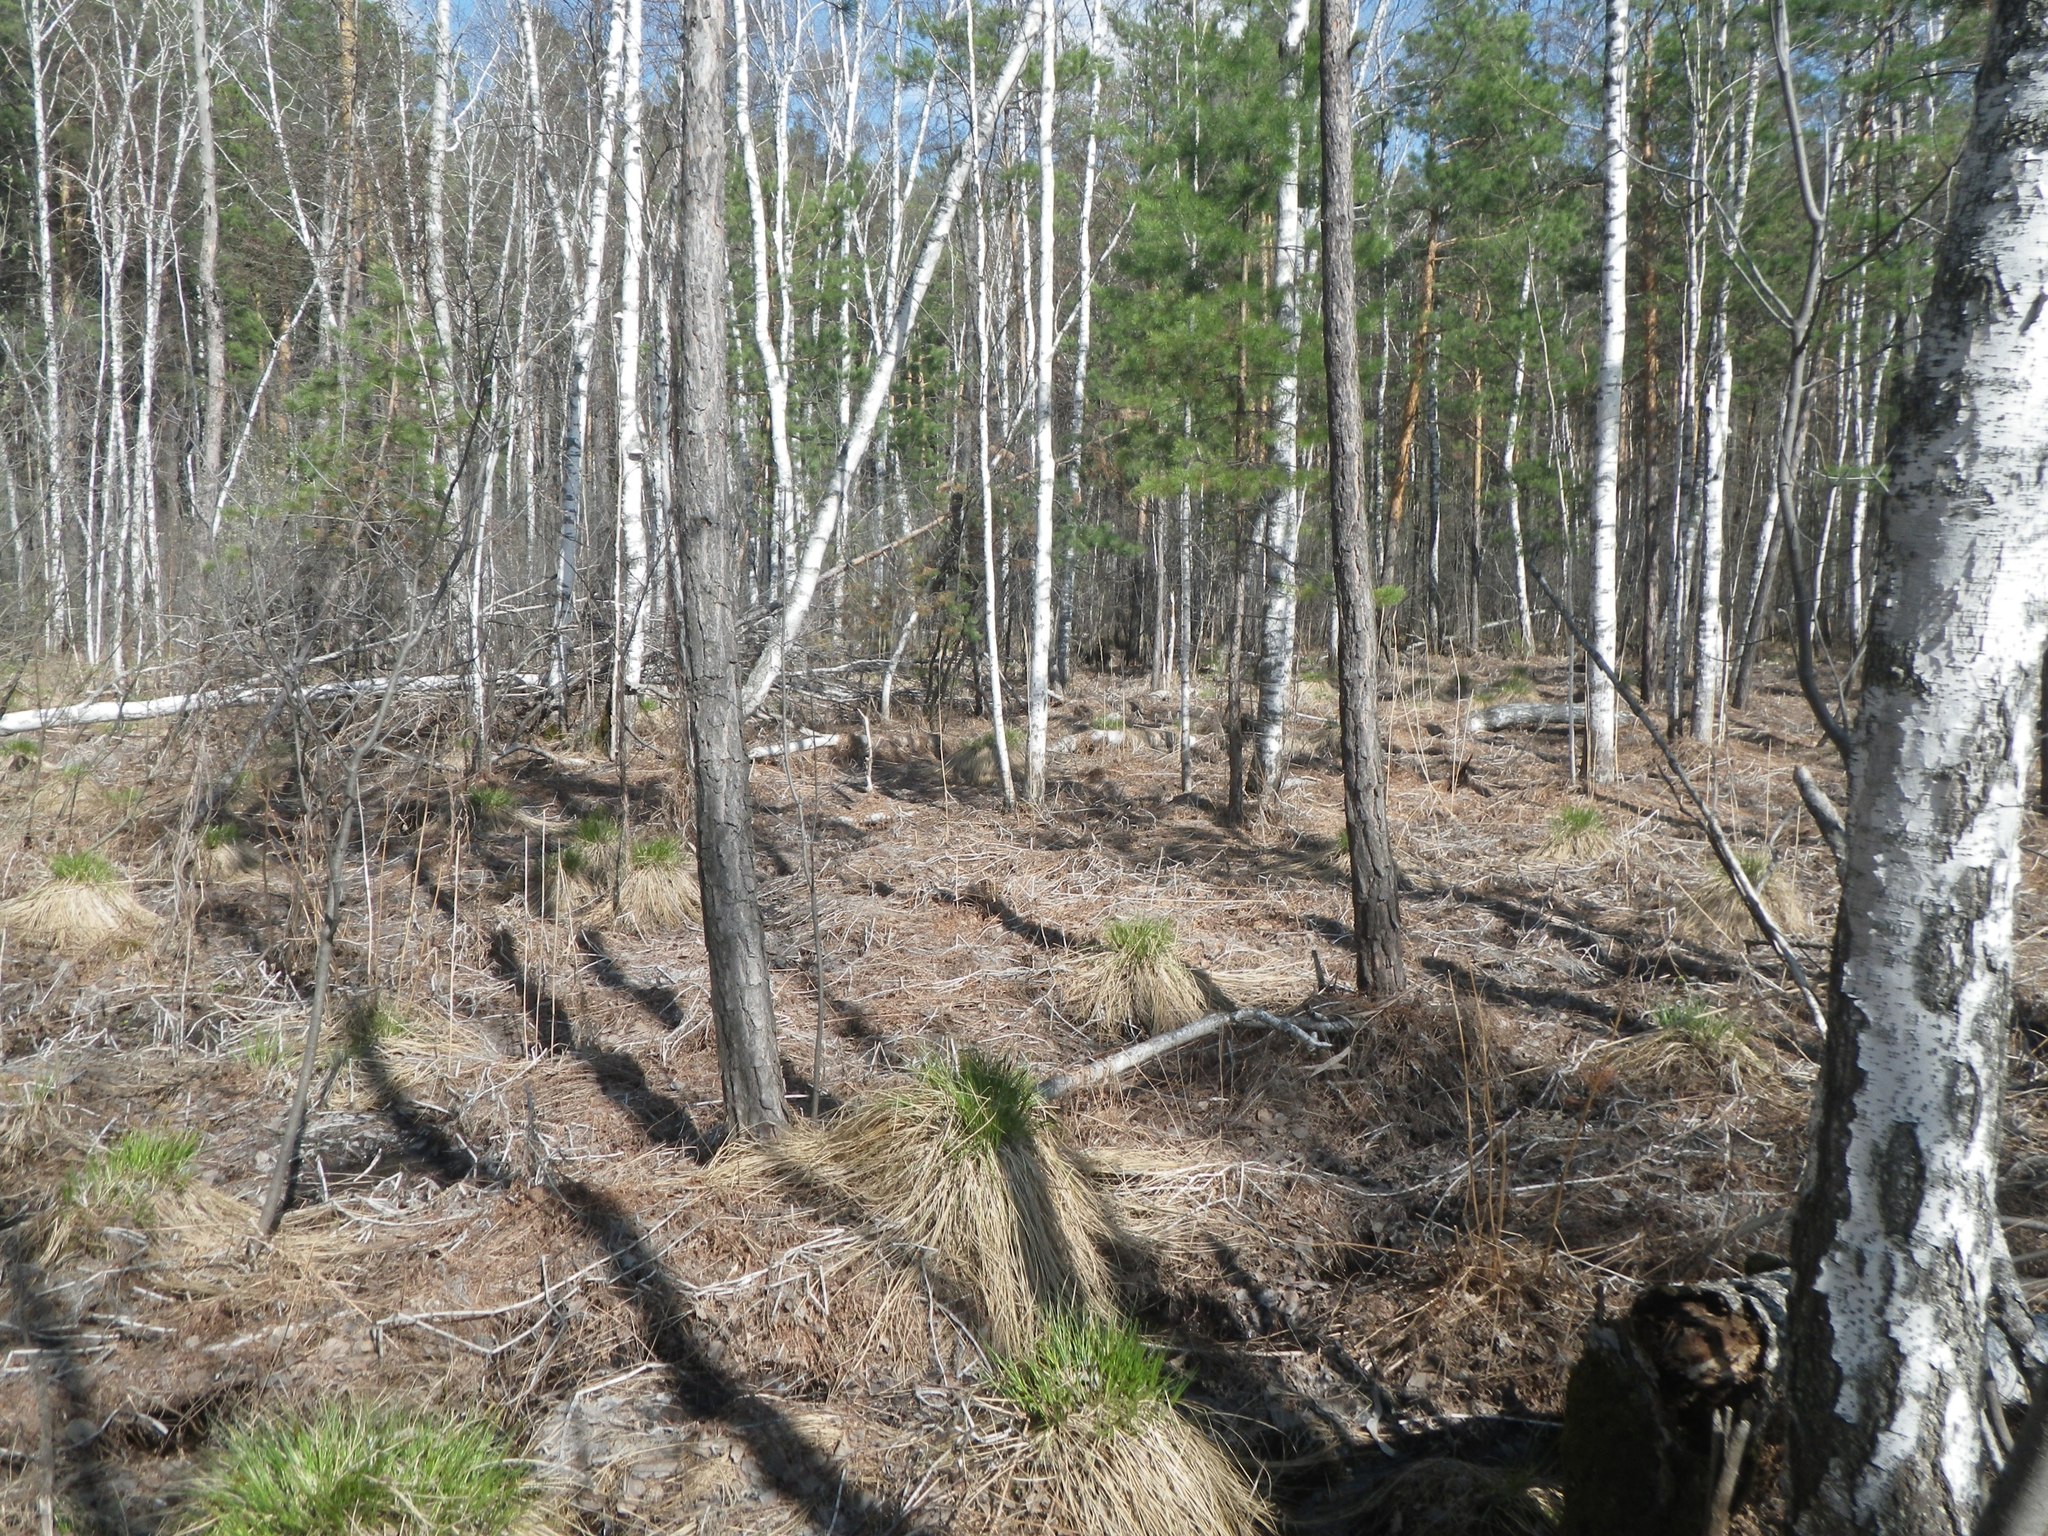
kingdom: Plantae
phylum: Tracheophyta
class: Pinopsida
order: Pinales
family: Pinaceae
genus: Pinus
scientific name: Pinus sylvestris
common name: Scots pine
